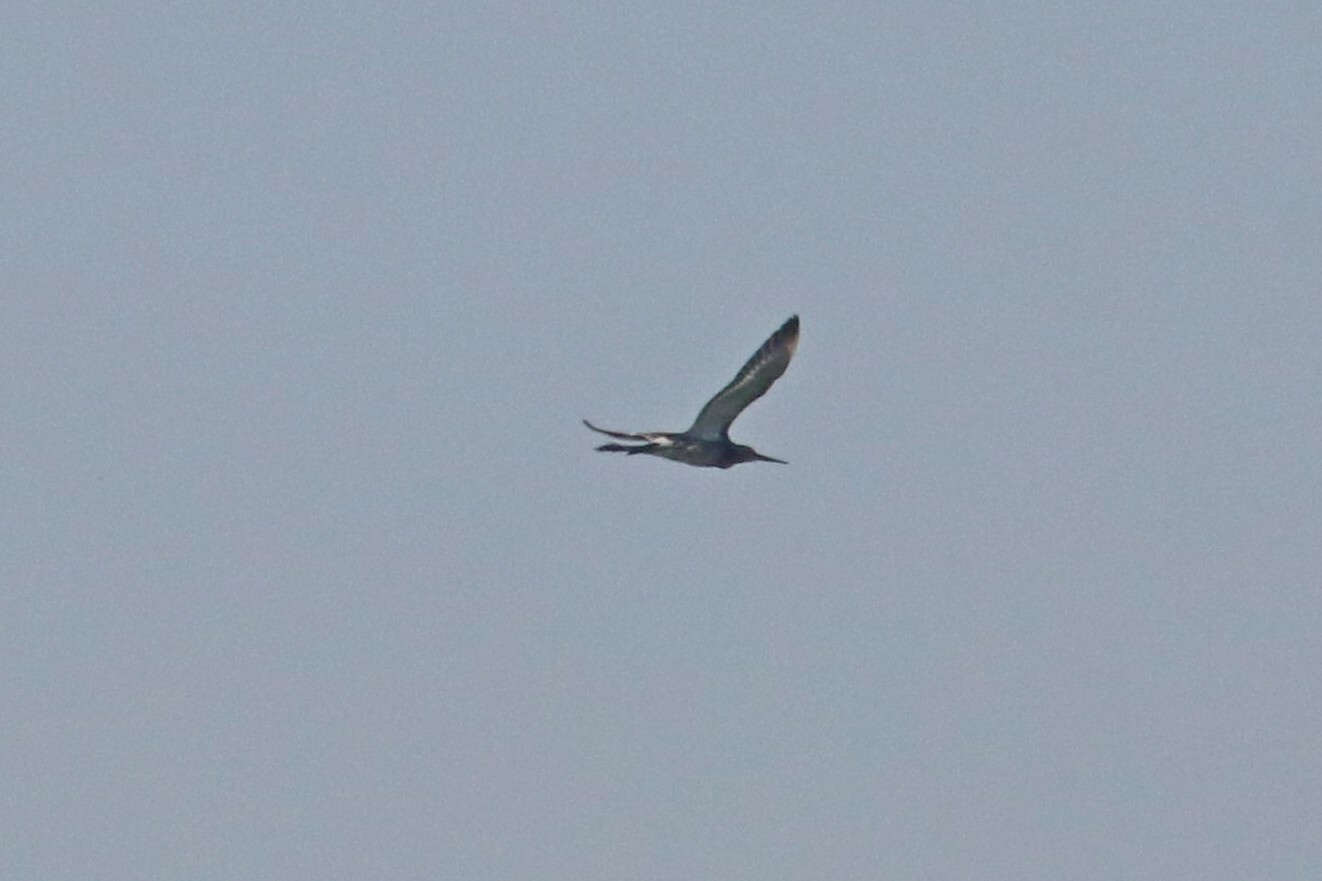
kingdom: Animalia
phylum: Chordata
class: Aves
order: Charadriiformes
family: Scolopacidae
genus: Limosa
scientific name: Limosa limosa
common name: Black-tailed godwit
